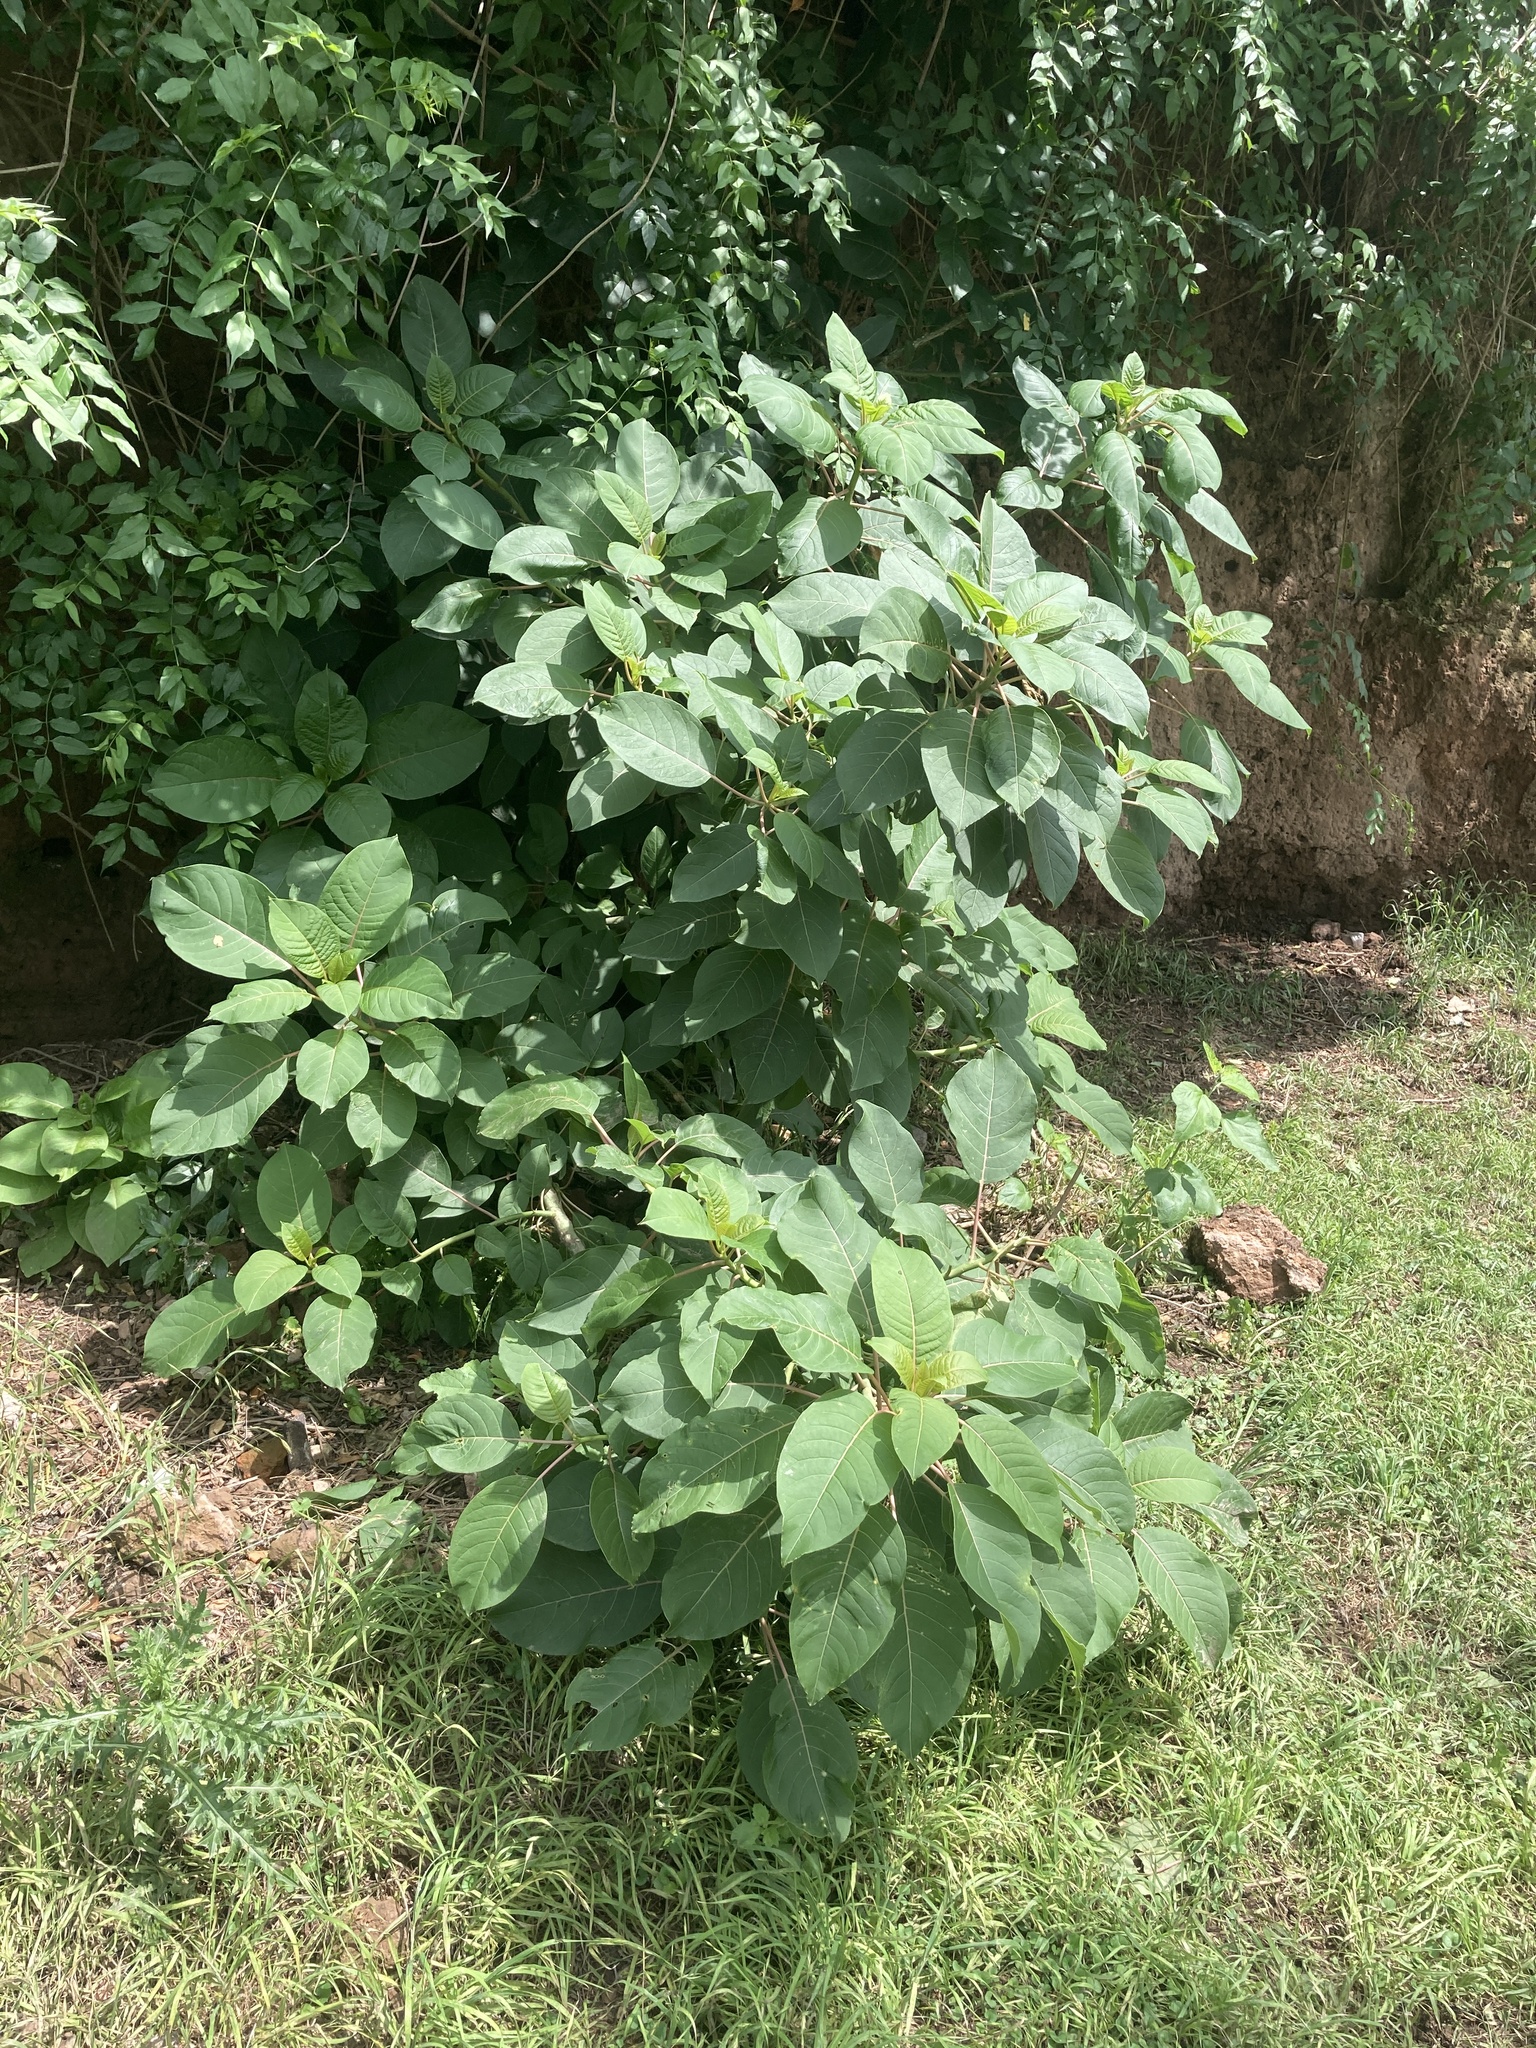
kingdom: Plantae
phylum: Tracheophyta
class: Magnoliopsida
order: Caryophyllales
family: Phytolaccaceae
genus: Phytolacca
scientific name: Phytolacca dioica
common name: Pokeweed
